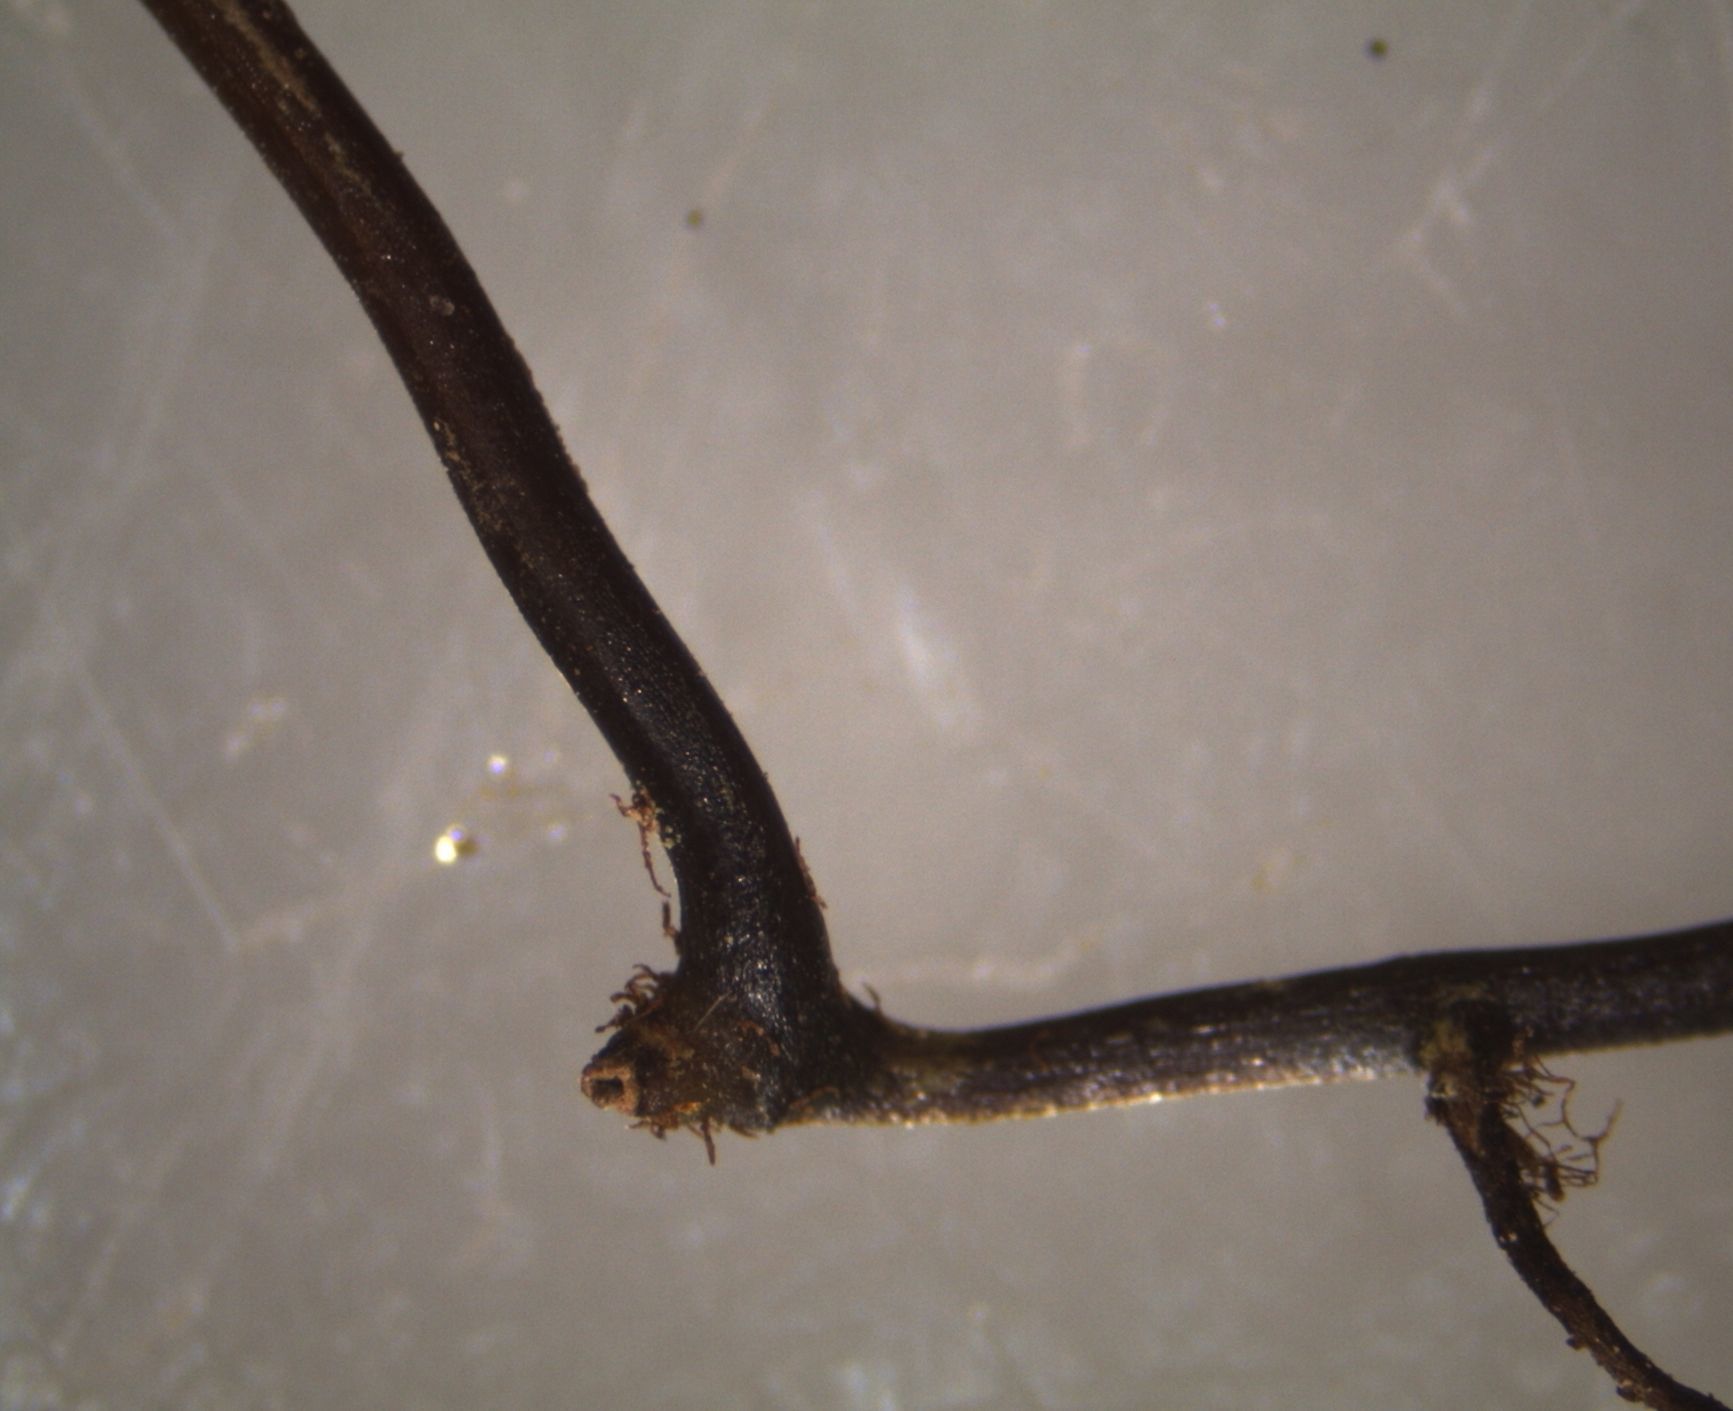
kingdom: Plantae
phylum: Tracheophyta
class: Polypodiopsida
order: Hymenophyllales
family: Hymenophyllaceae
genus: Hymenophyllum
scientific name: Hymenophyllum demissum
